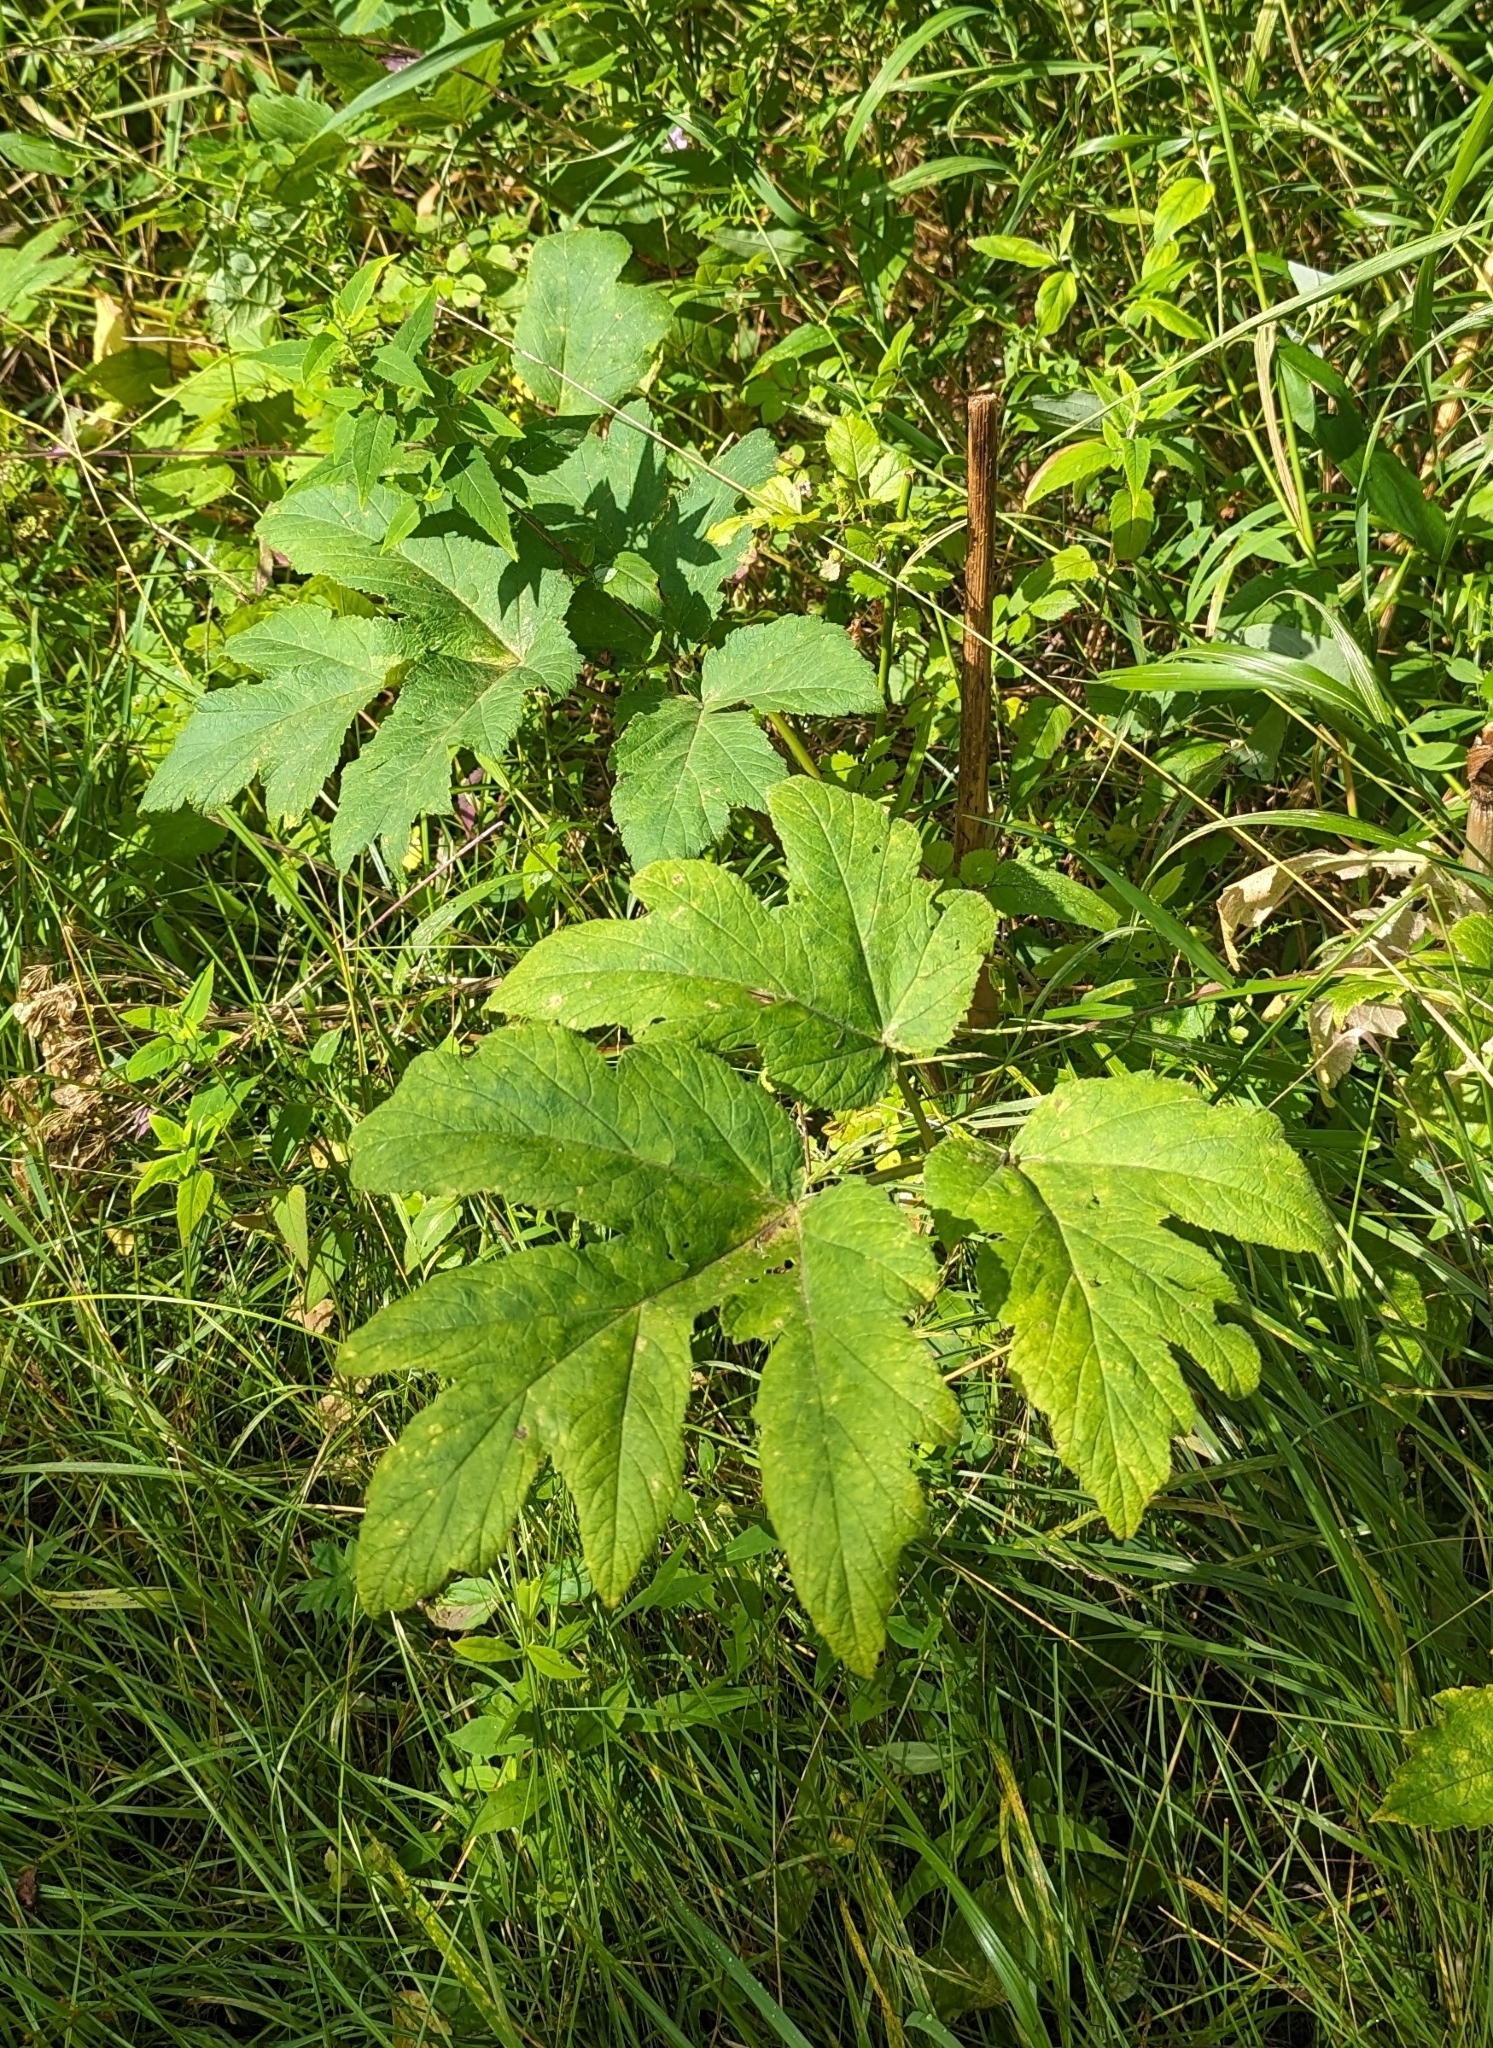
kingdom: Plantae
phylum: Tracheophyta
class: Magnoliopsida
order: Apiales
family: Apiaceae
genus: Heracleum
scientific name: Heracleum maximum
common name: American cow parsnip
